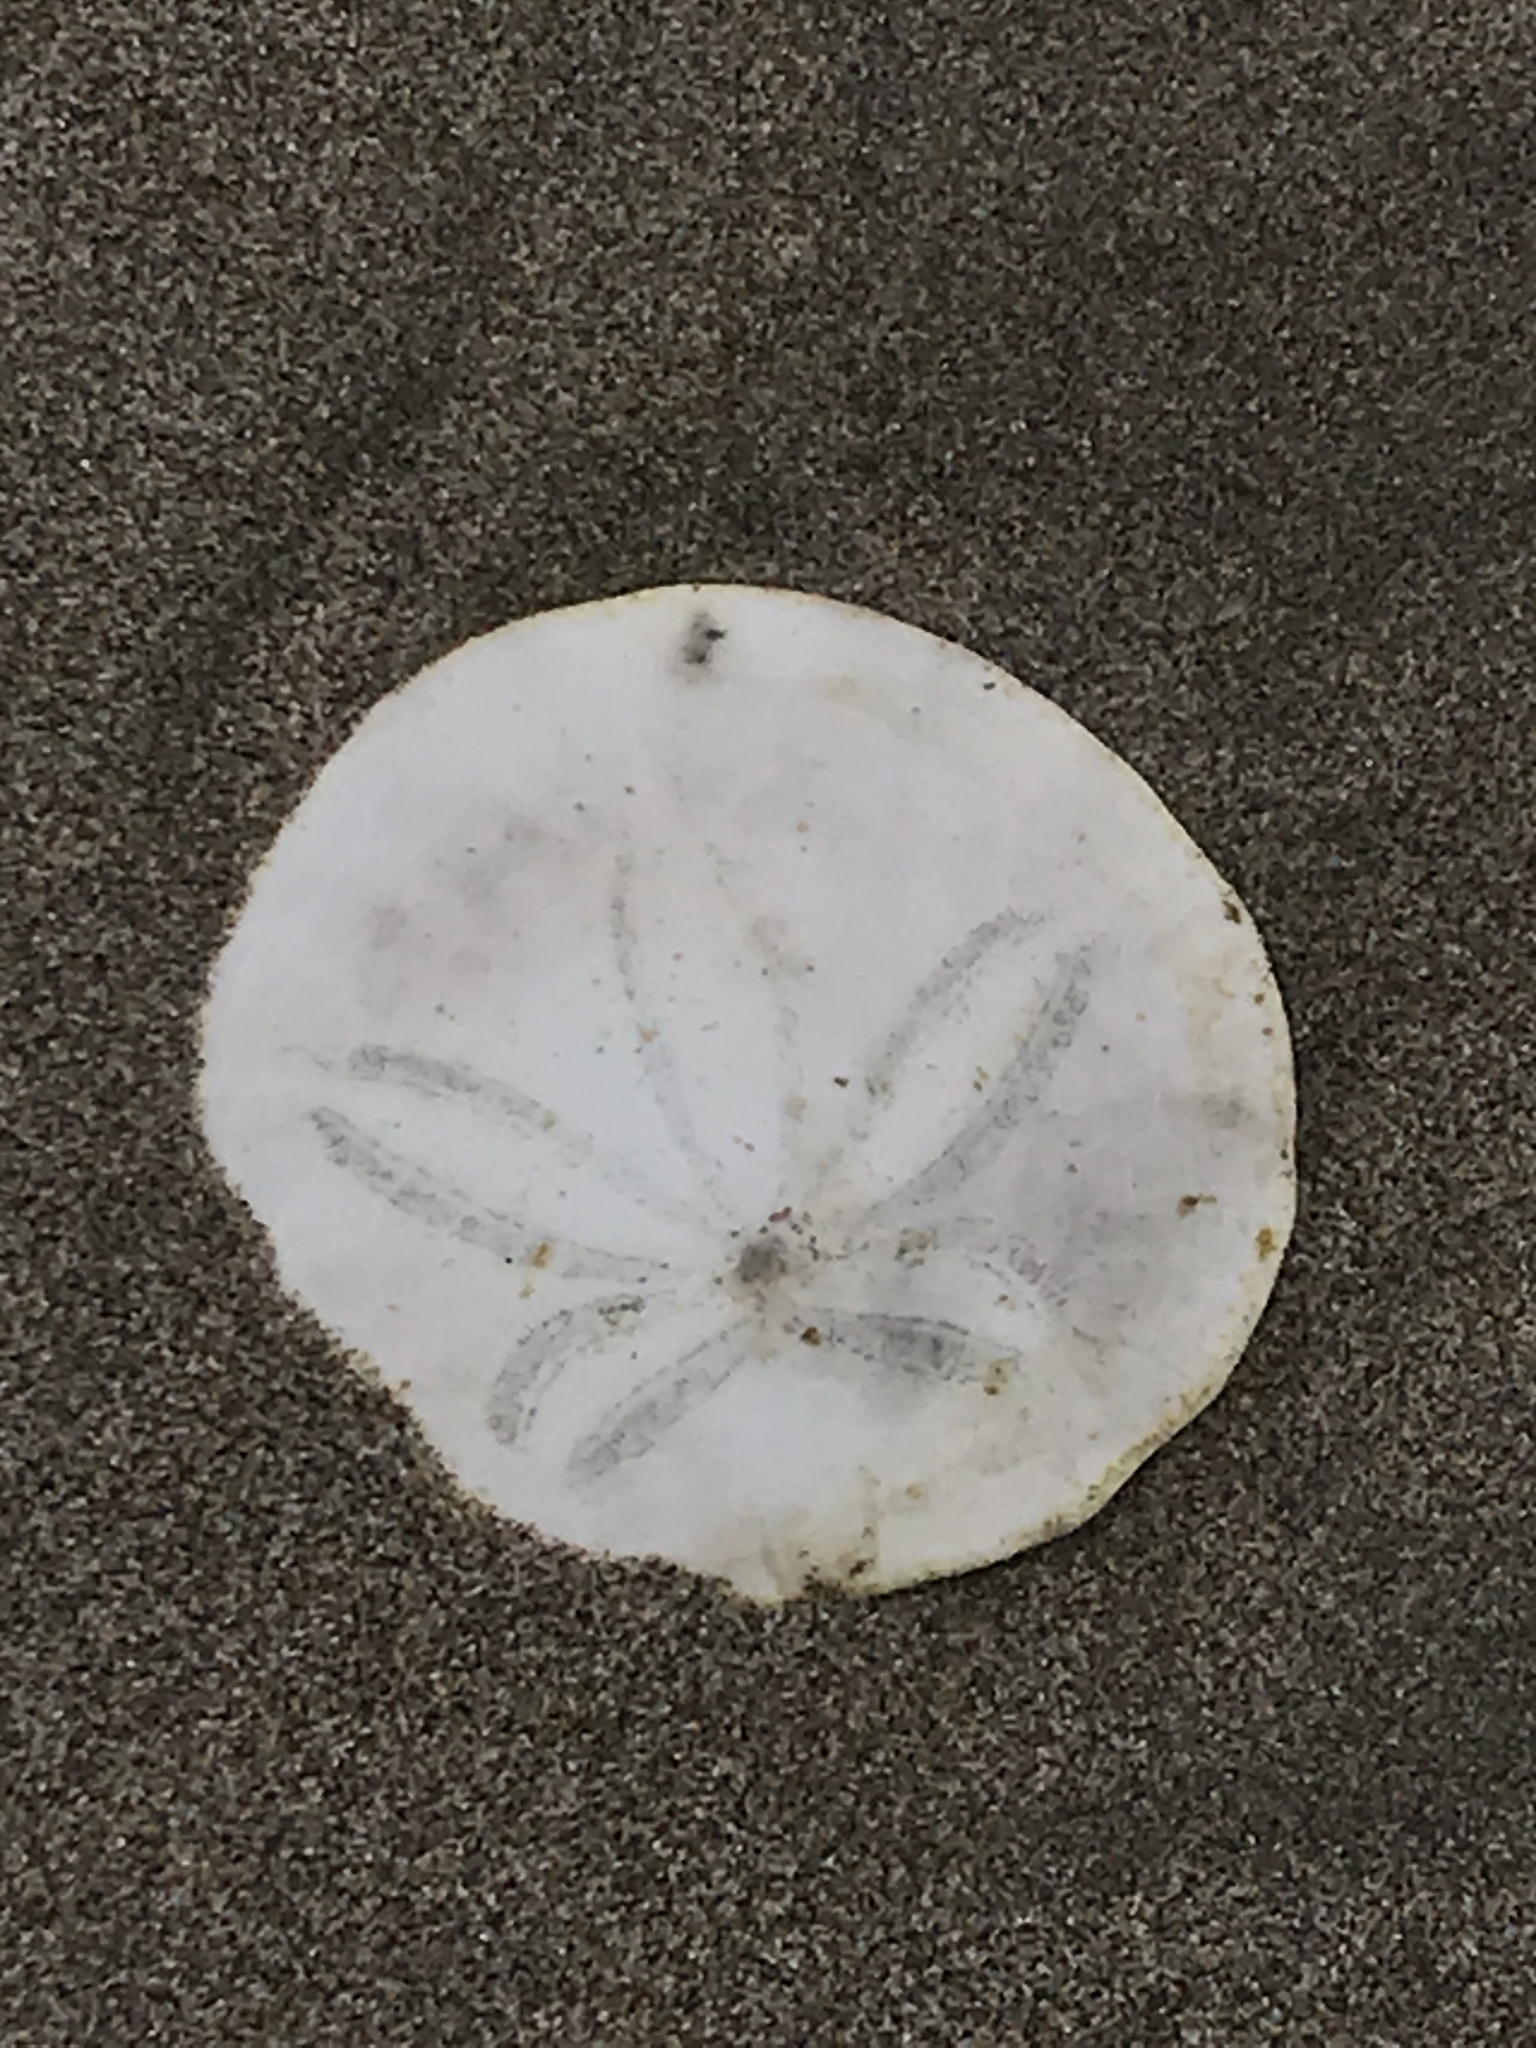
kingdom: Animalia
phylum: Echinodermata
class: Echinoidea
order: Echinolampadacea
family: Dendrasteridae
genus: Dendraster
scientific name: Dendraster excentricus
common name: Eccentric sand dollar sea urchin
